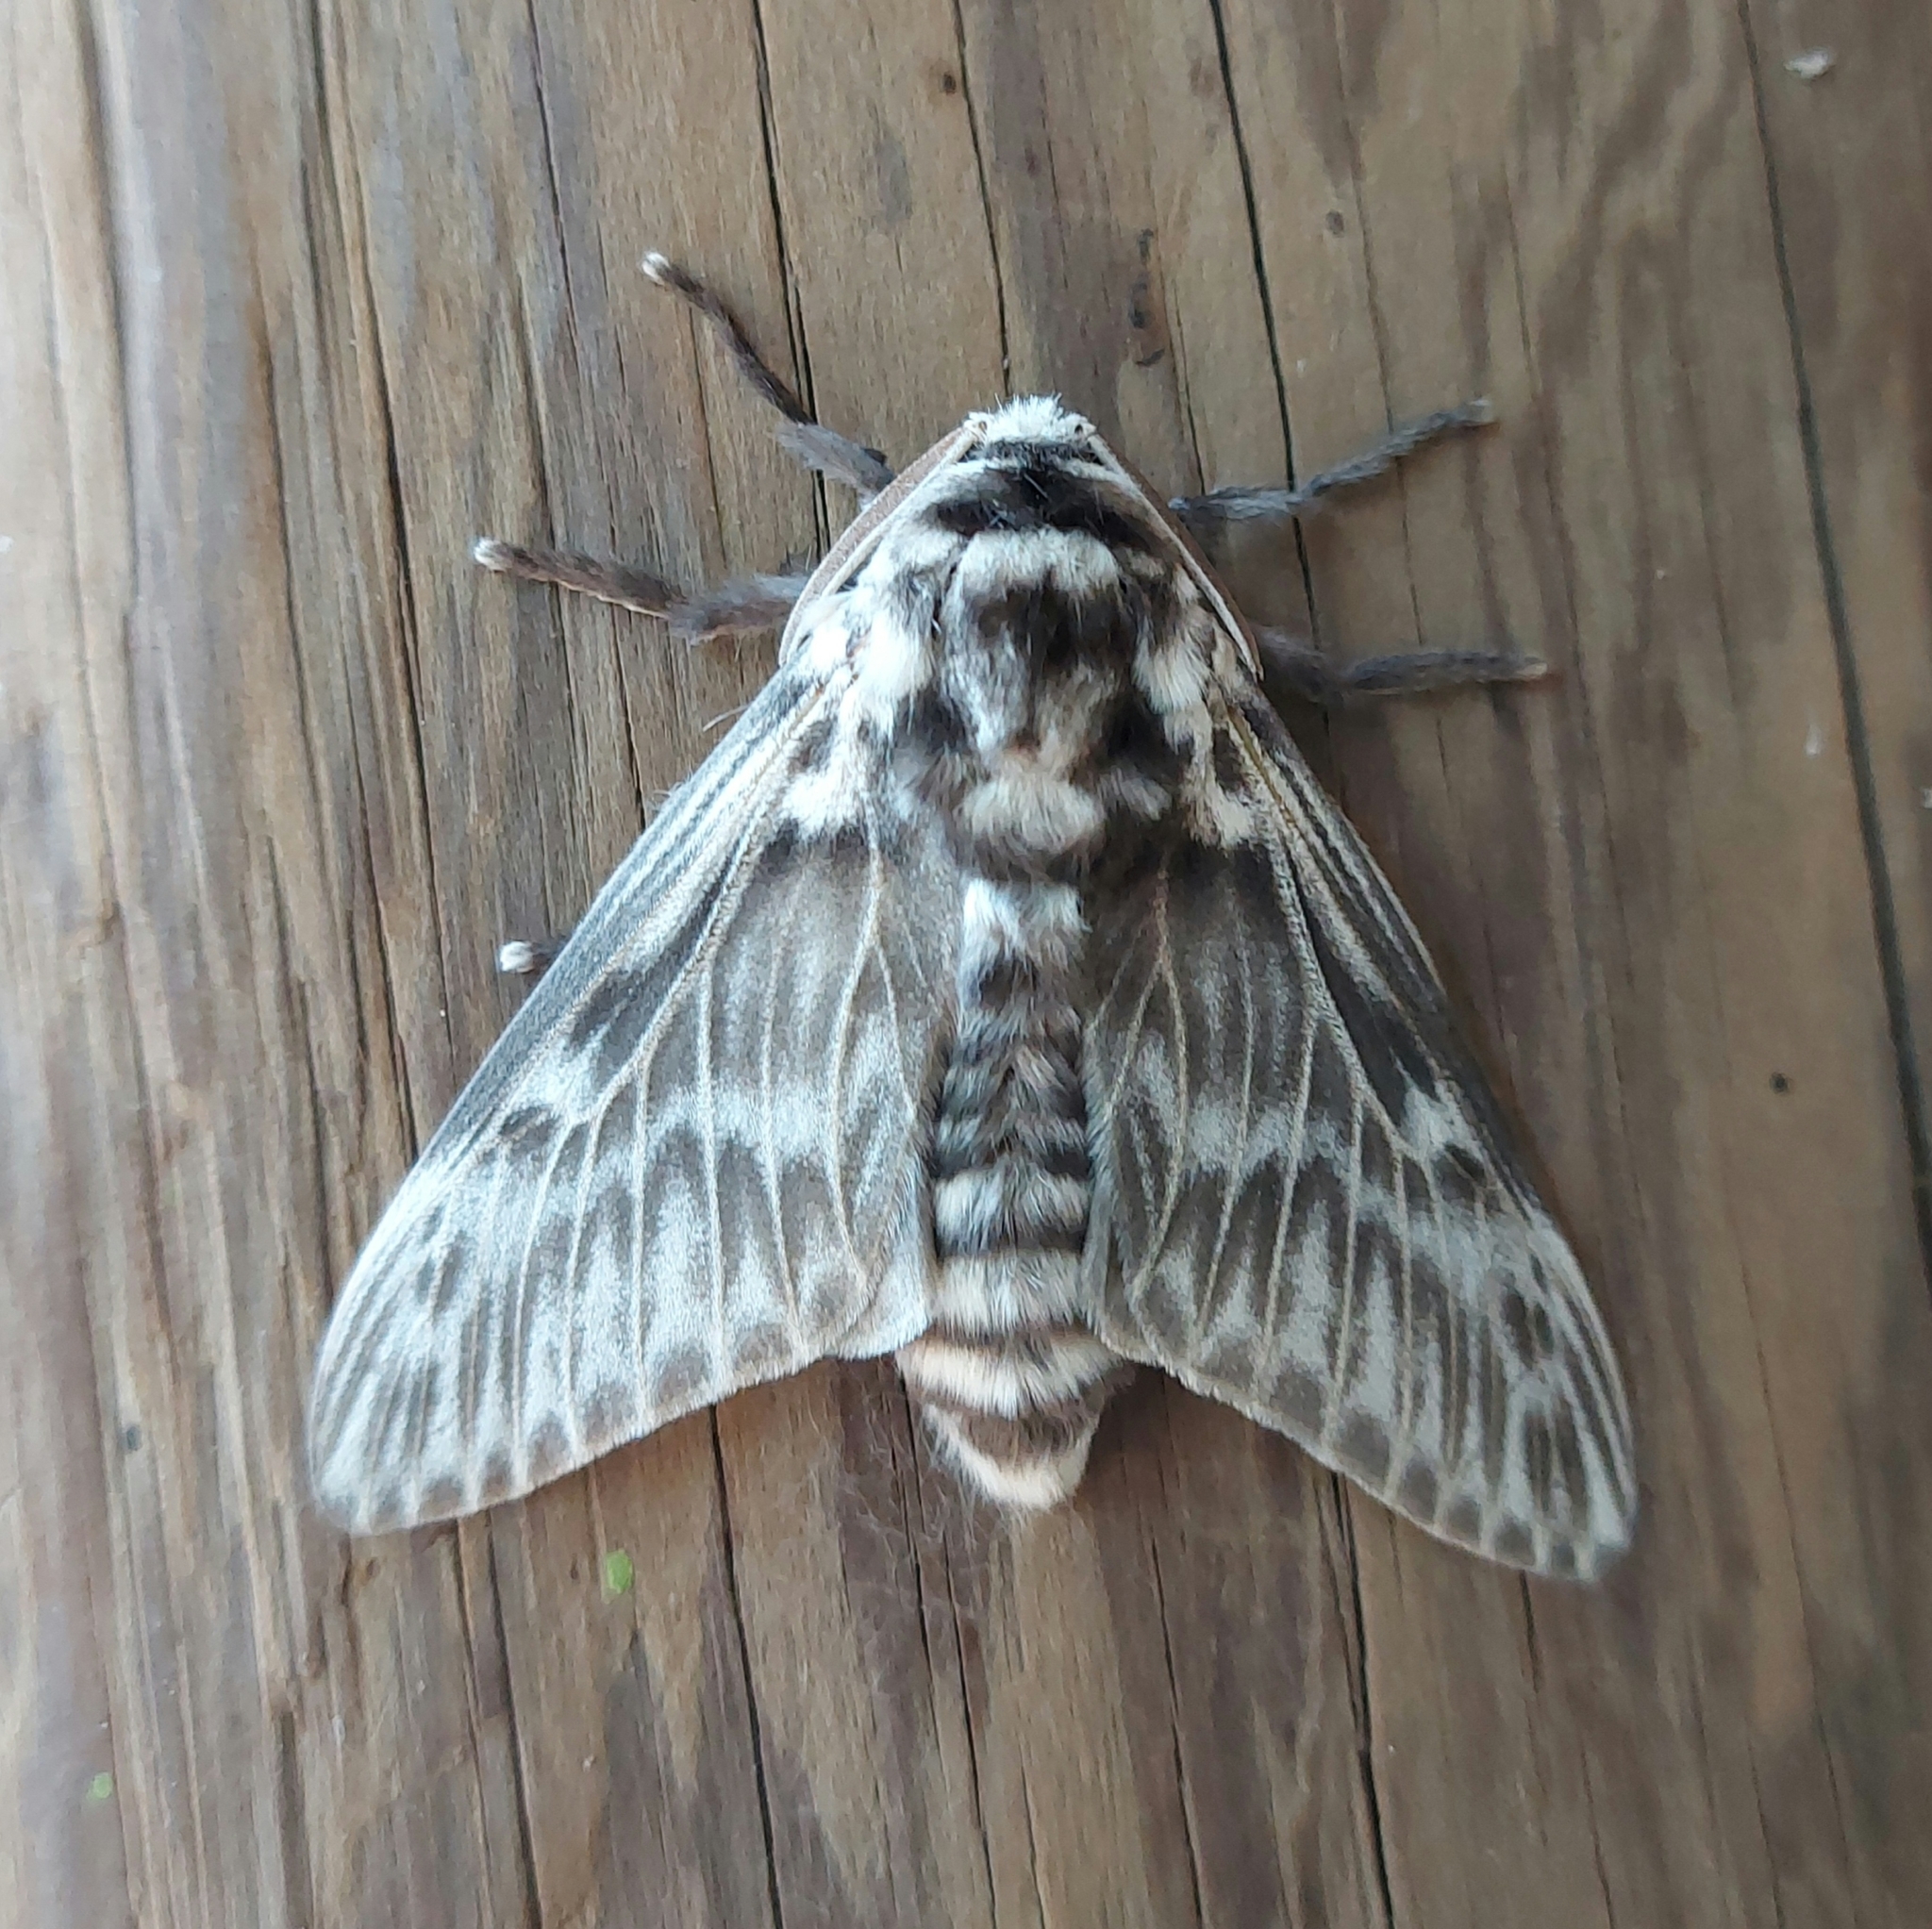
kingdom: Animalia
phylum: Arthropoda
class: Insecta
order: Lepidoptera
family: Megalopygidae
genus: Podalia
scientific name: Podalia orsilochus
